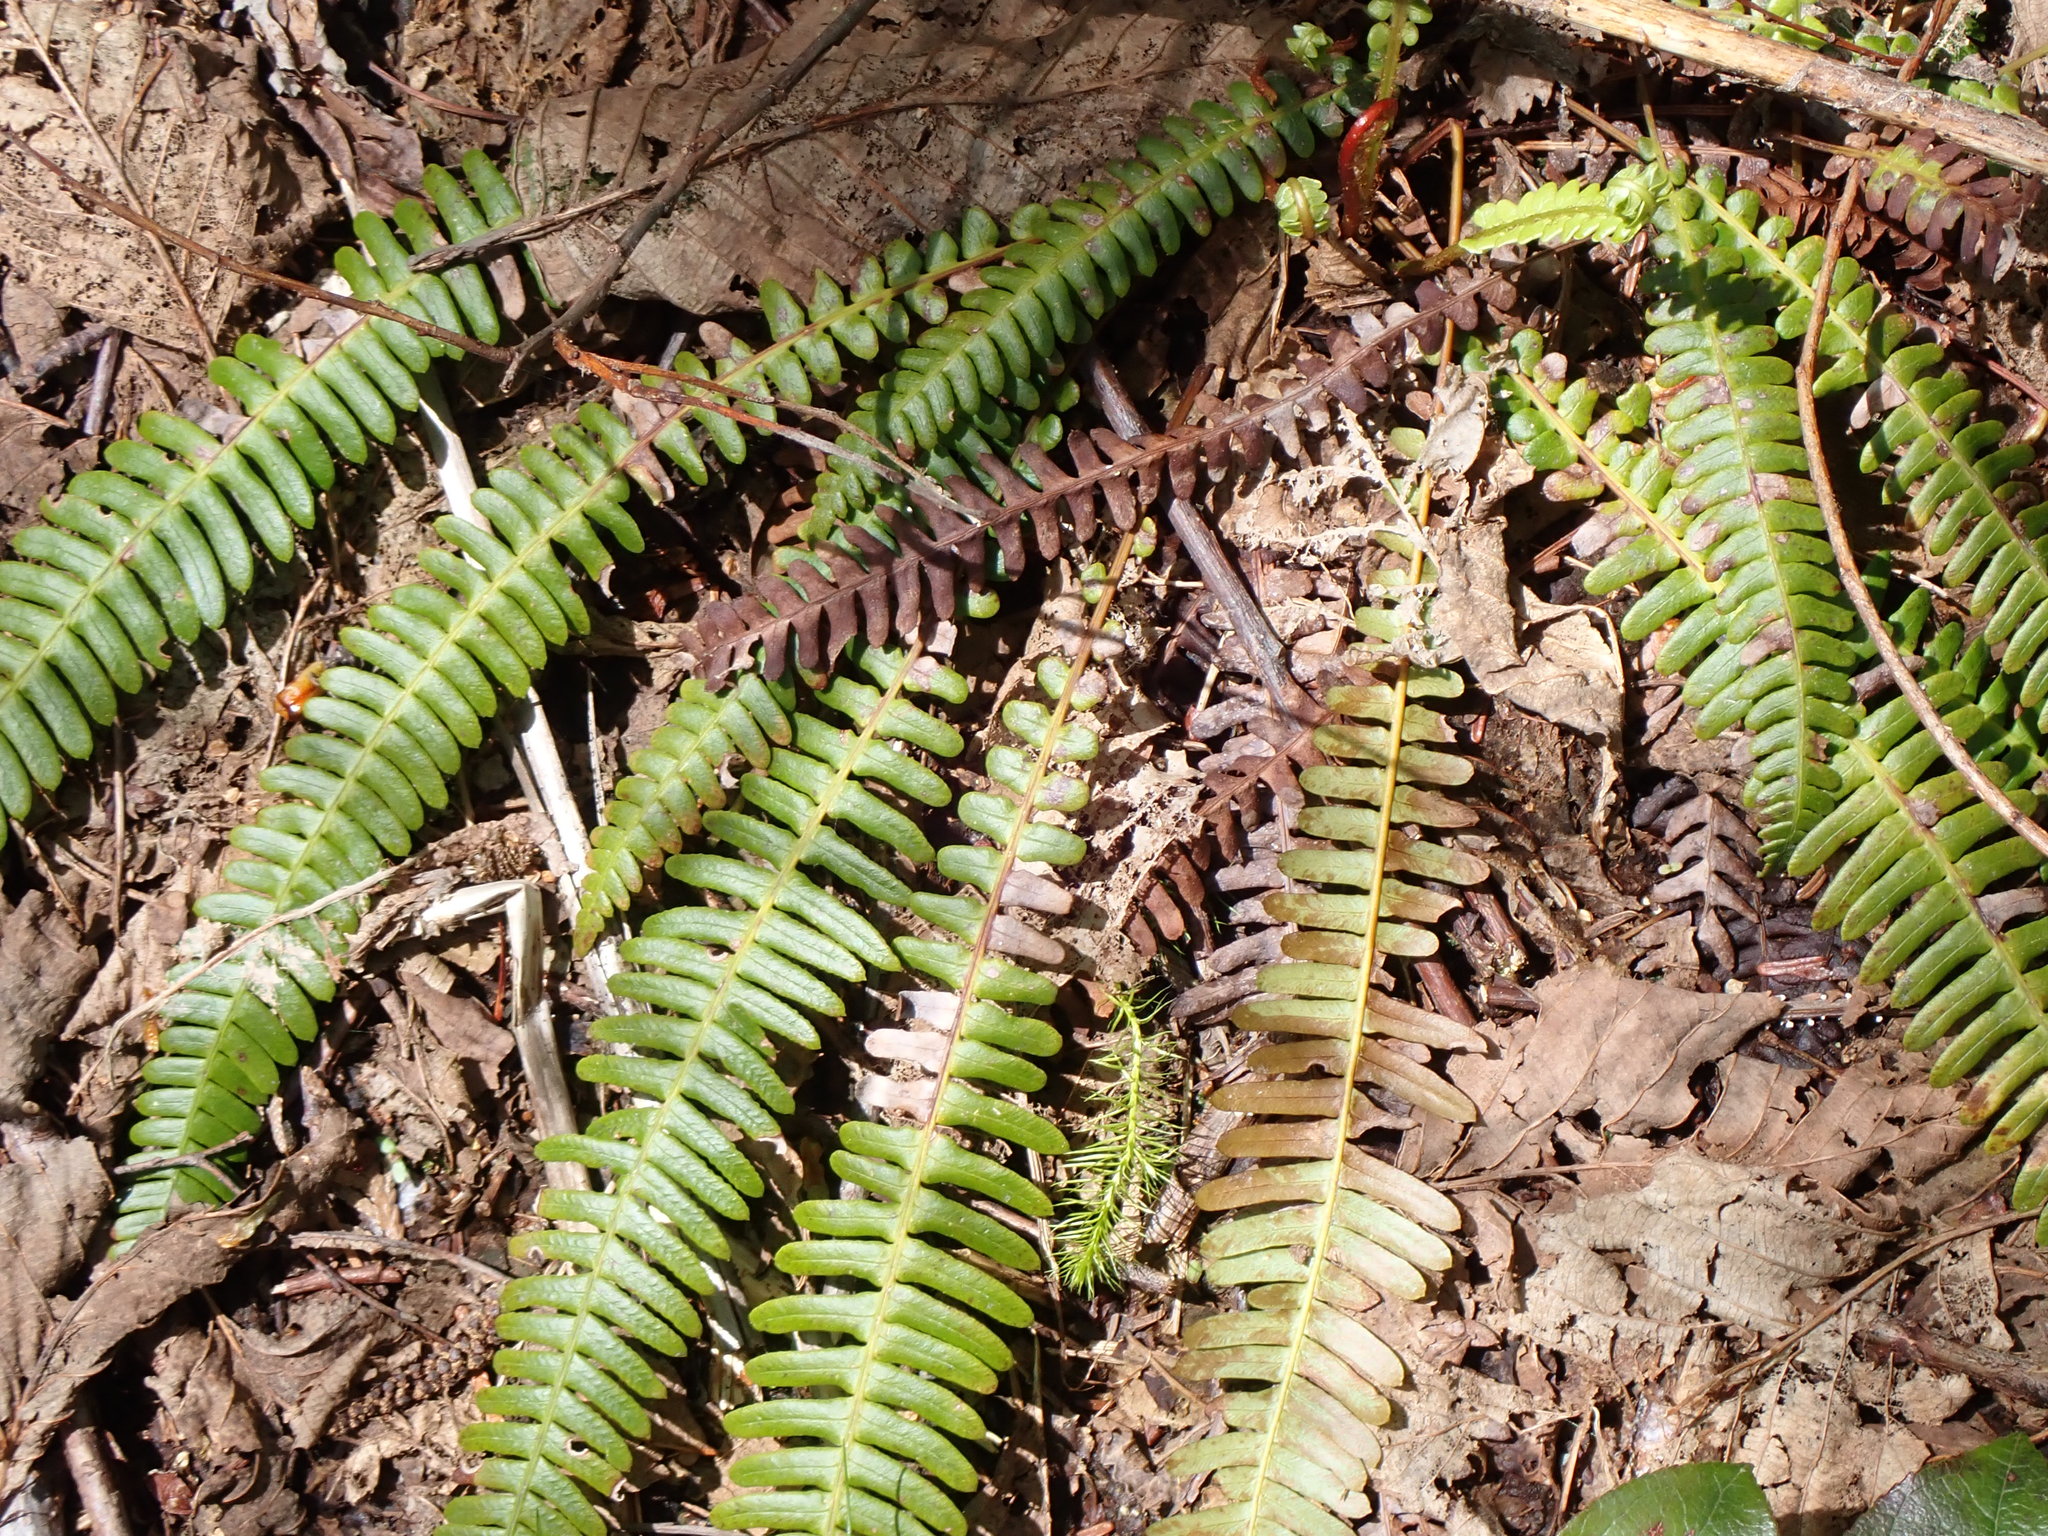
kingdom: Plantae
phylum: Tracheophyta
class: Polypodiopsida
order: Polypodiales
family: Blechnaceae
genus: Struthiopteris
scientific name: Struthiopteris spicant
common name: Deer fern
